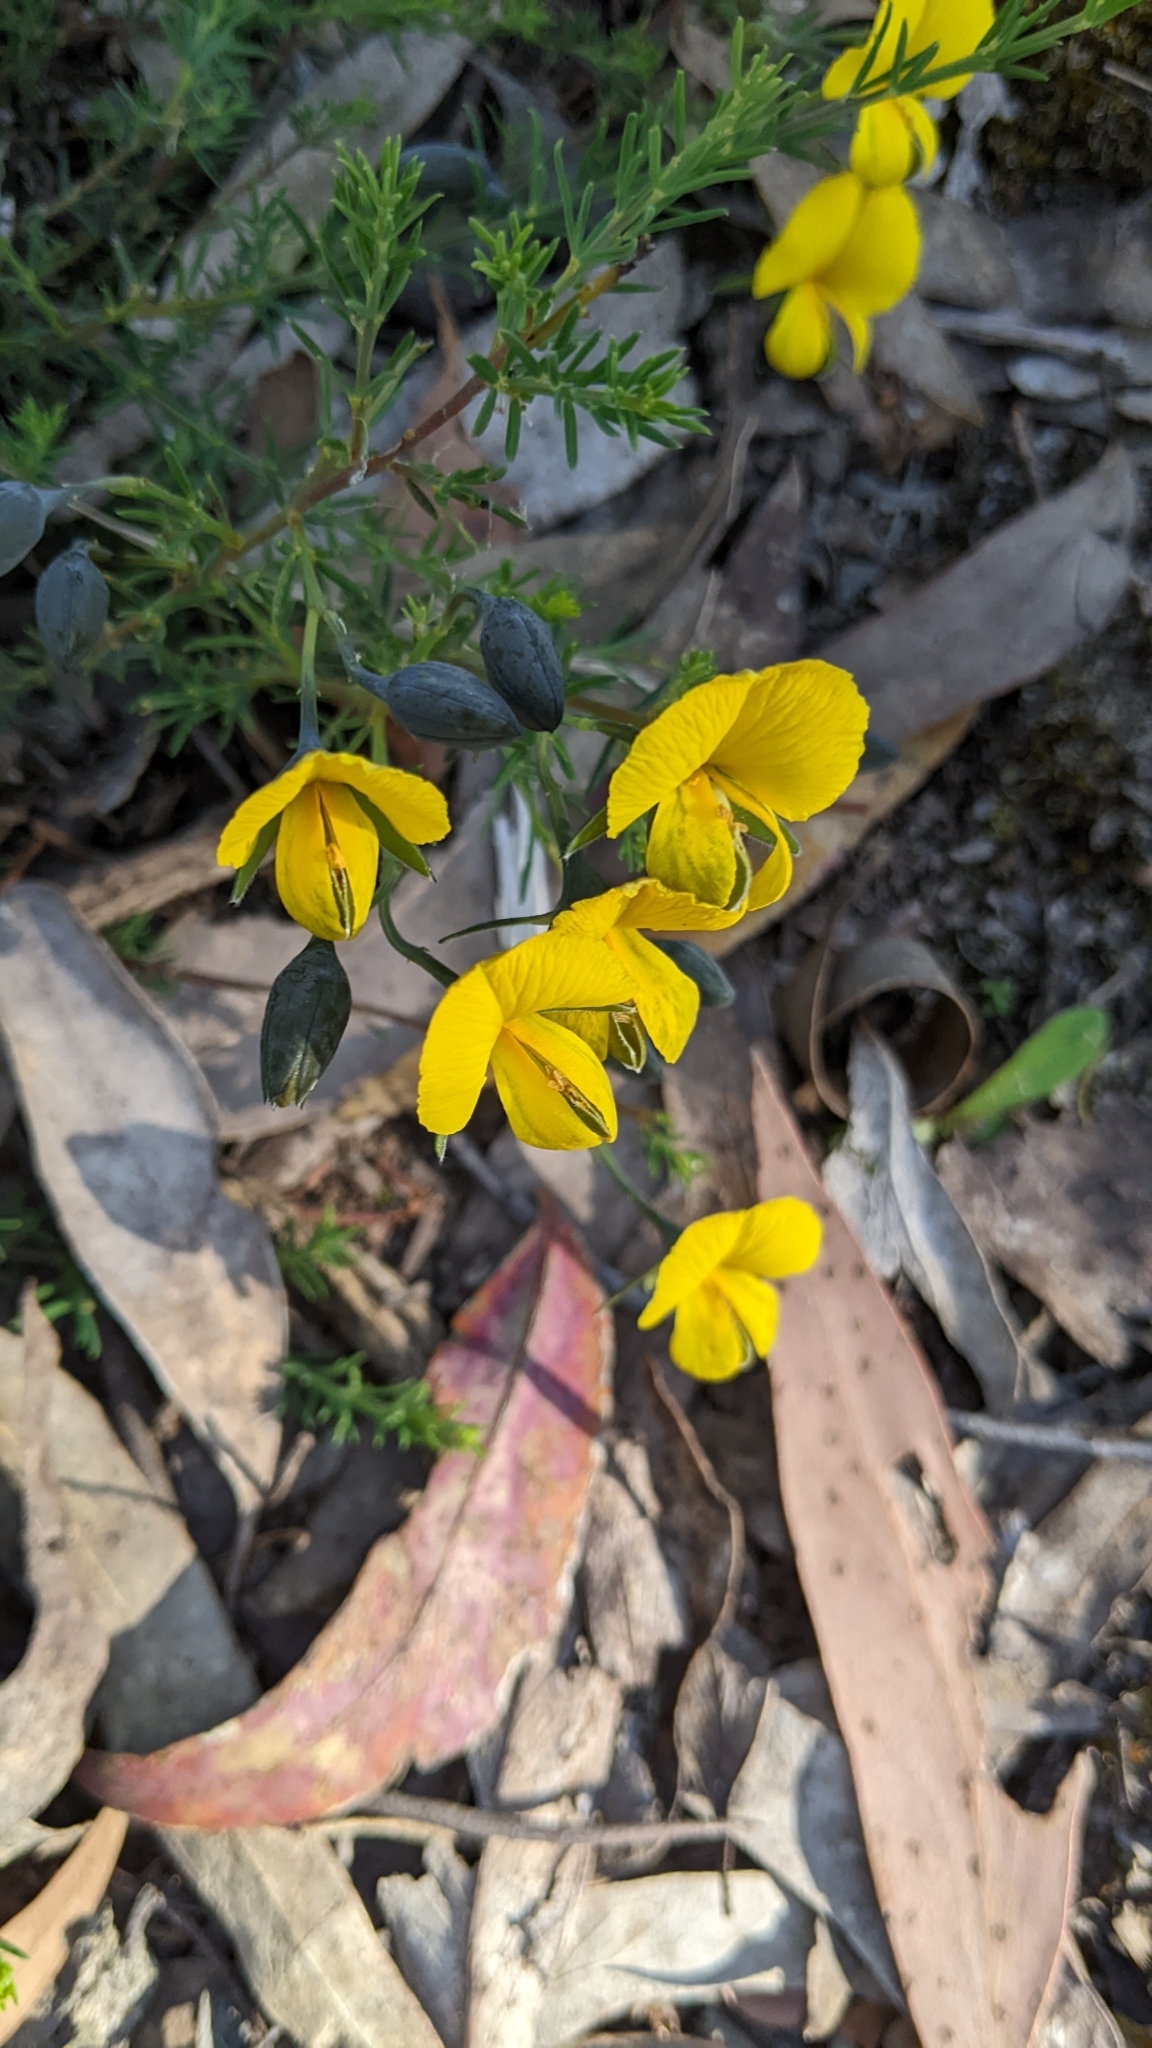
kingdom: Plantae
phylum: Tracheophyta
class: Magnoliopsida
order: Fabales
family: Fabaceae
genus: Gompholobium
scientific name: Gompholobium huegelii
